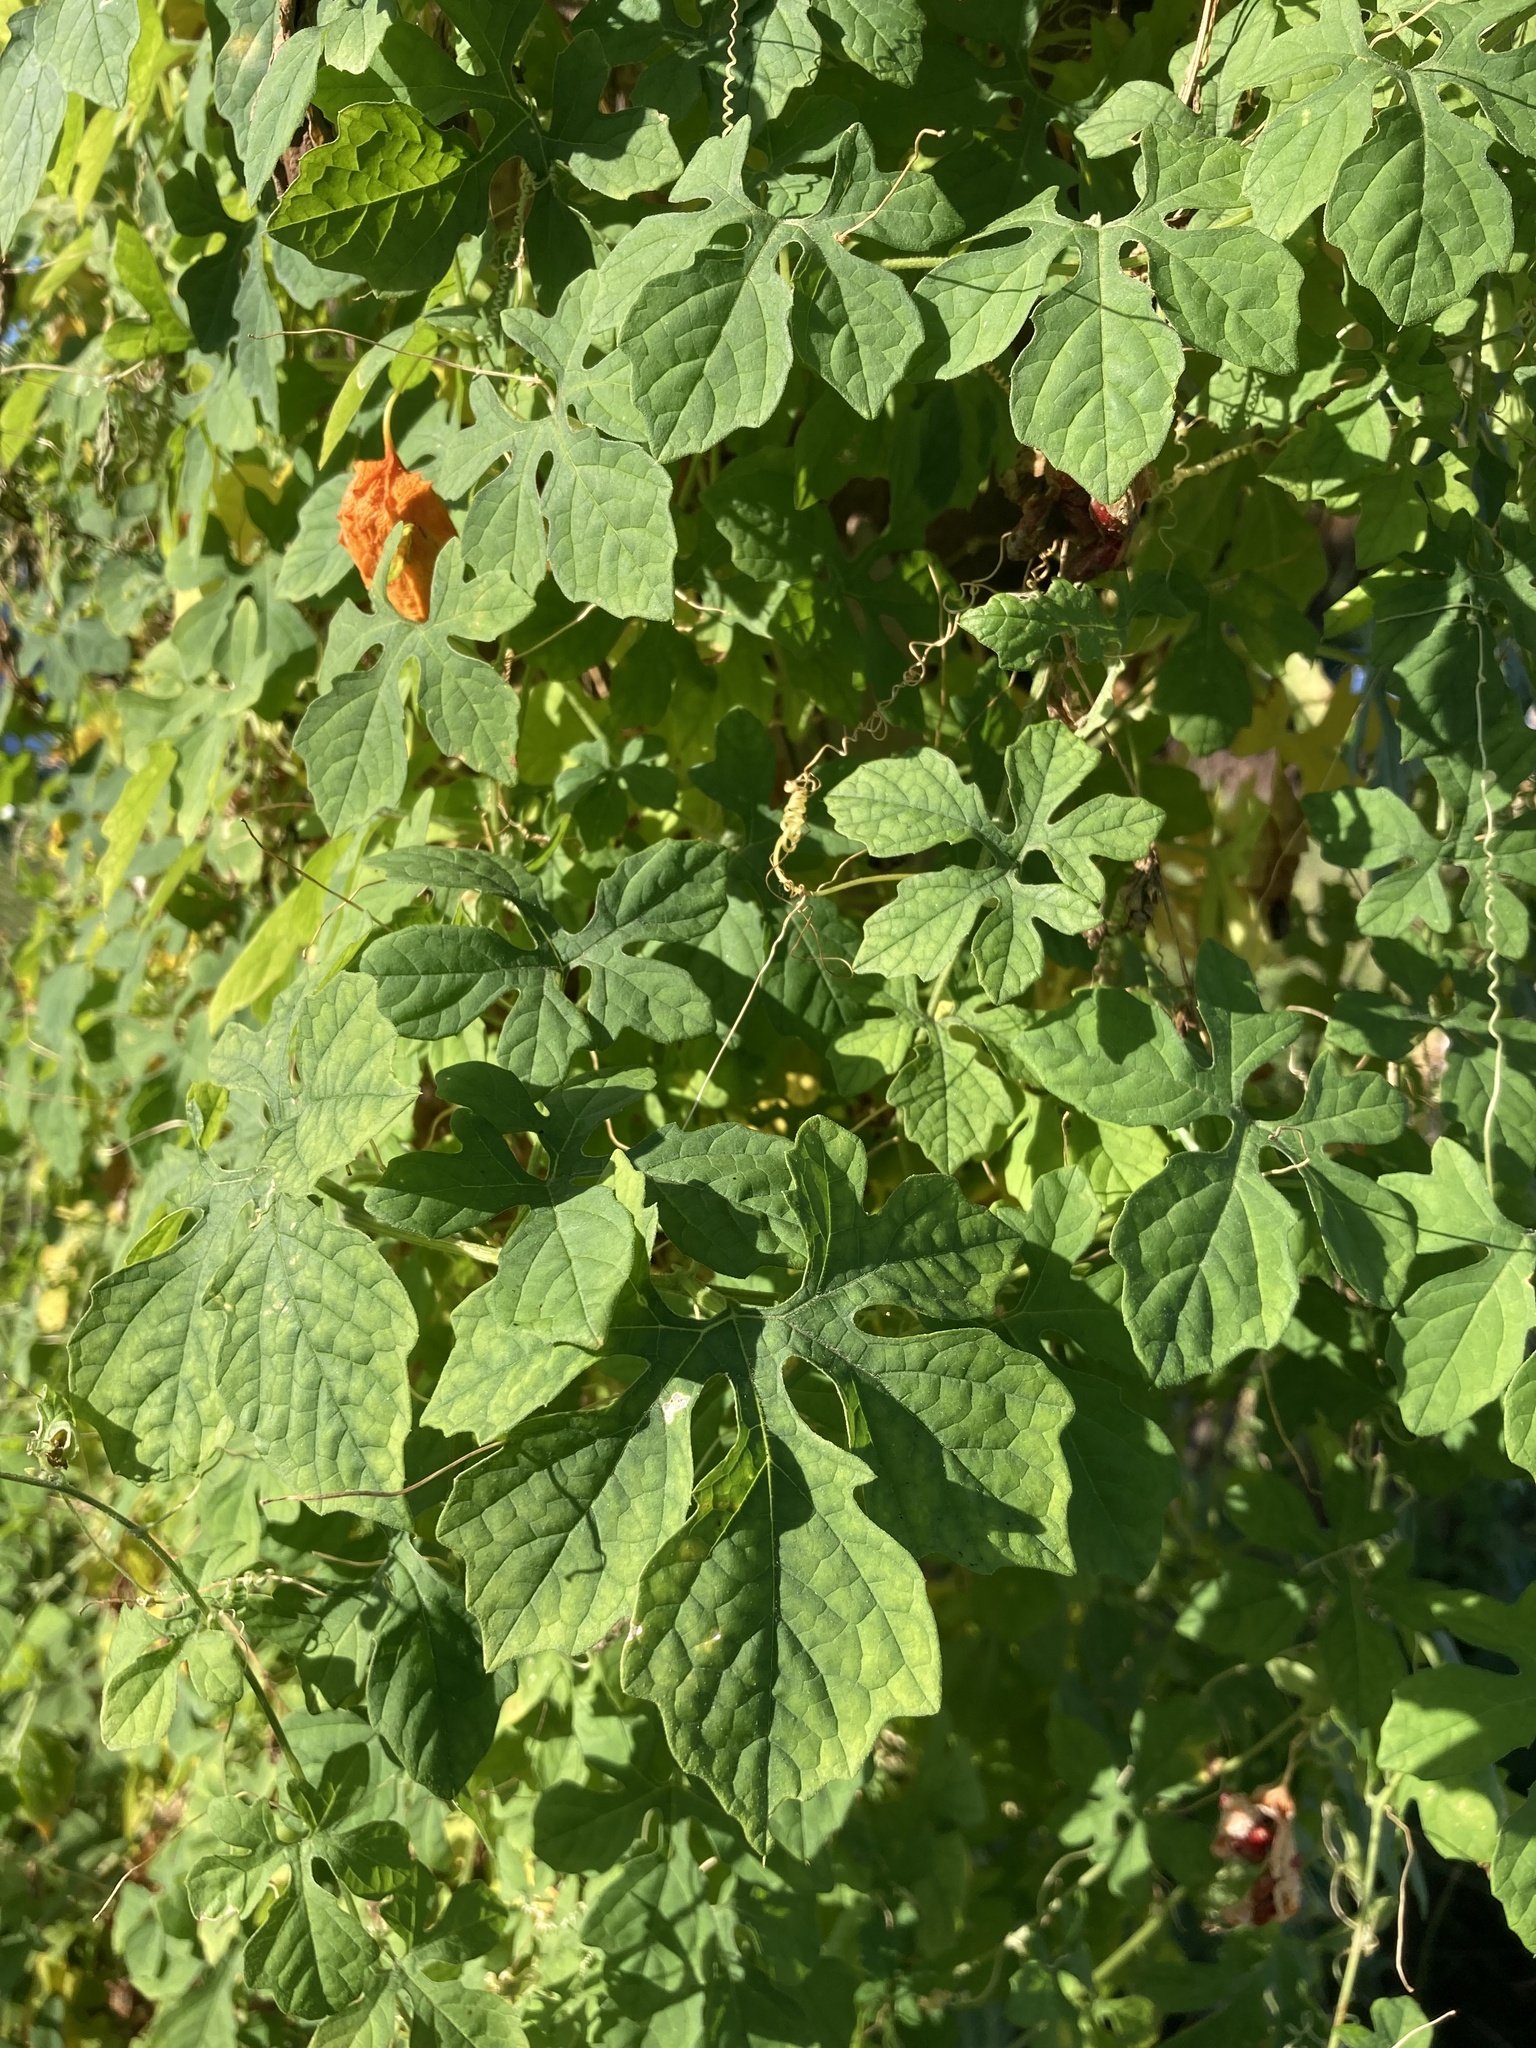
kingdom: Plantae
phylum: Tracheophyta
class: Magnoliopsida
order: Cucurbitales
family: Cucurbitaceae
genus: Momordica
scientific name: Momordica charantia
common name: Balsampear
